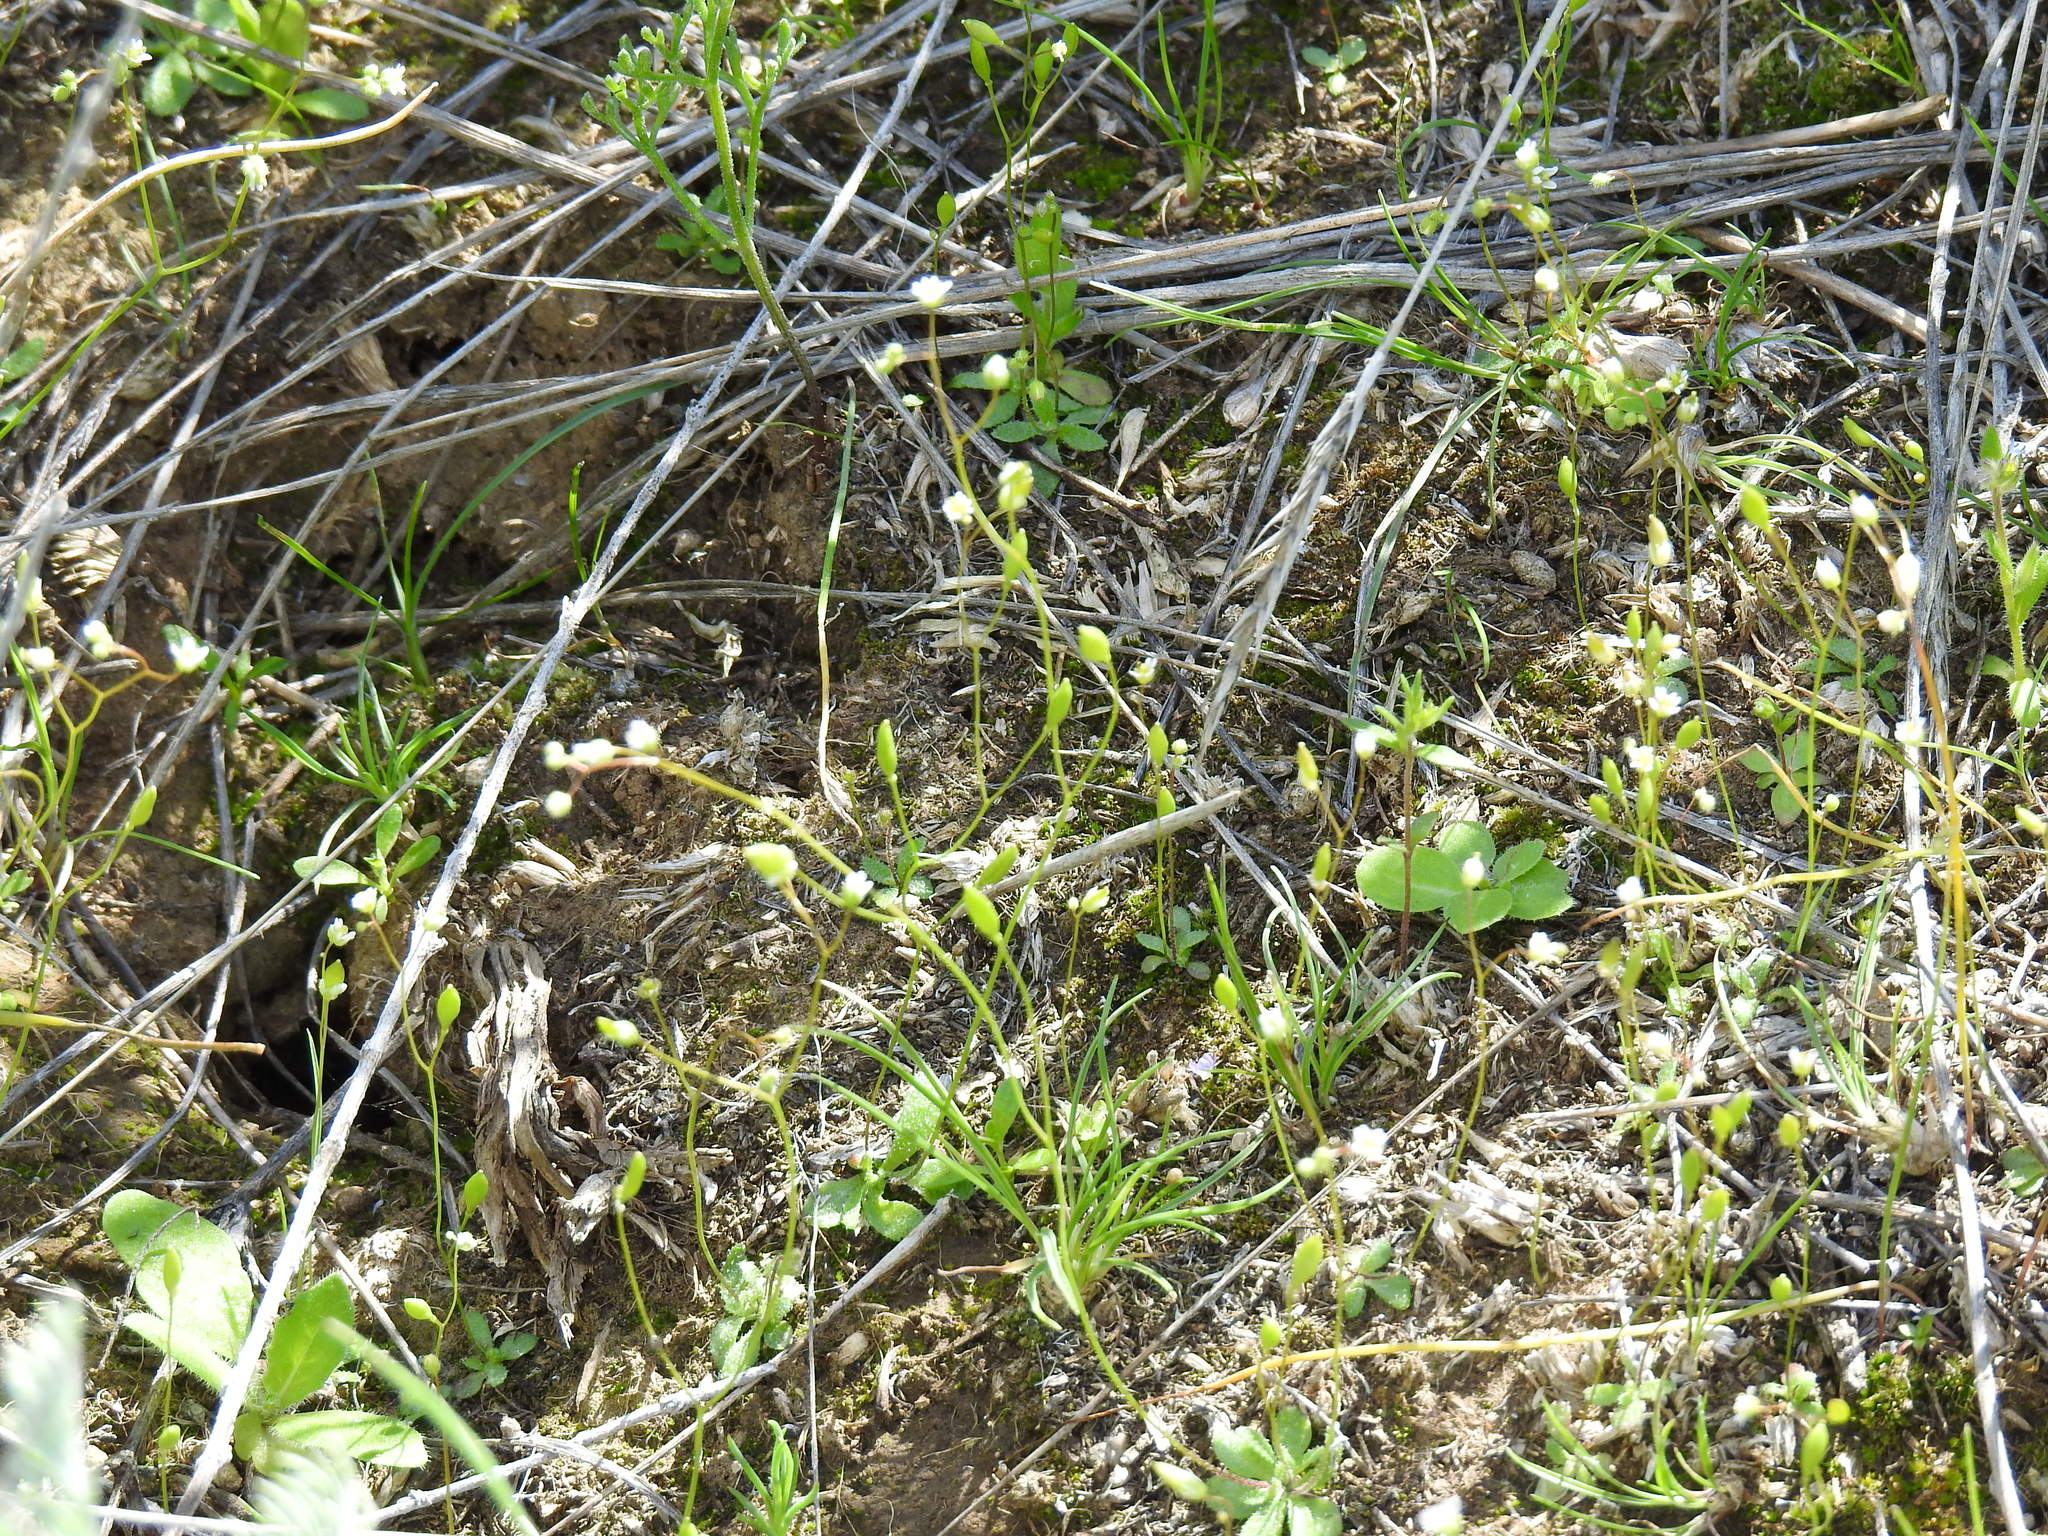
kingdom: Plantae
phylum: Tracheophyta
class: Magnoliopsida
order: Brassicales
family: Brassicaceae
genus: Draba
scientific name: Draba verna
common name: Spring draba
